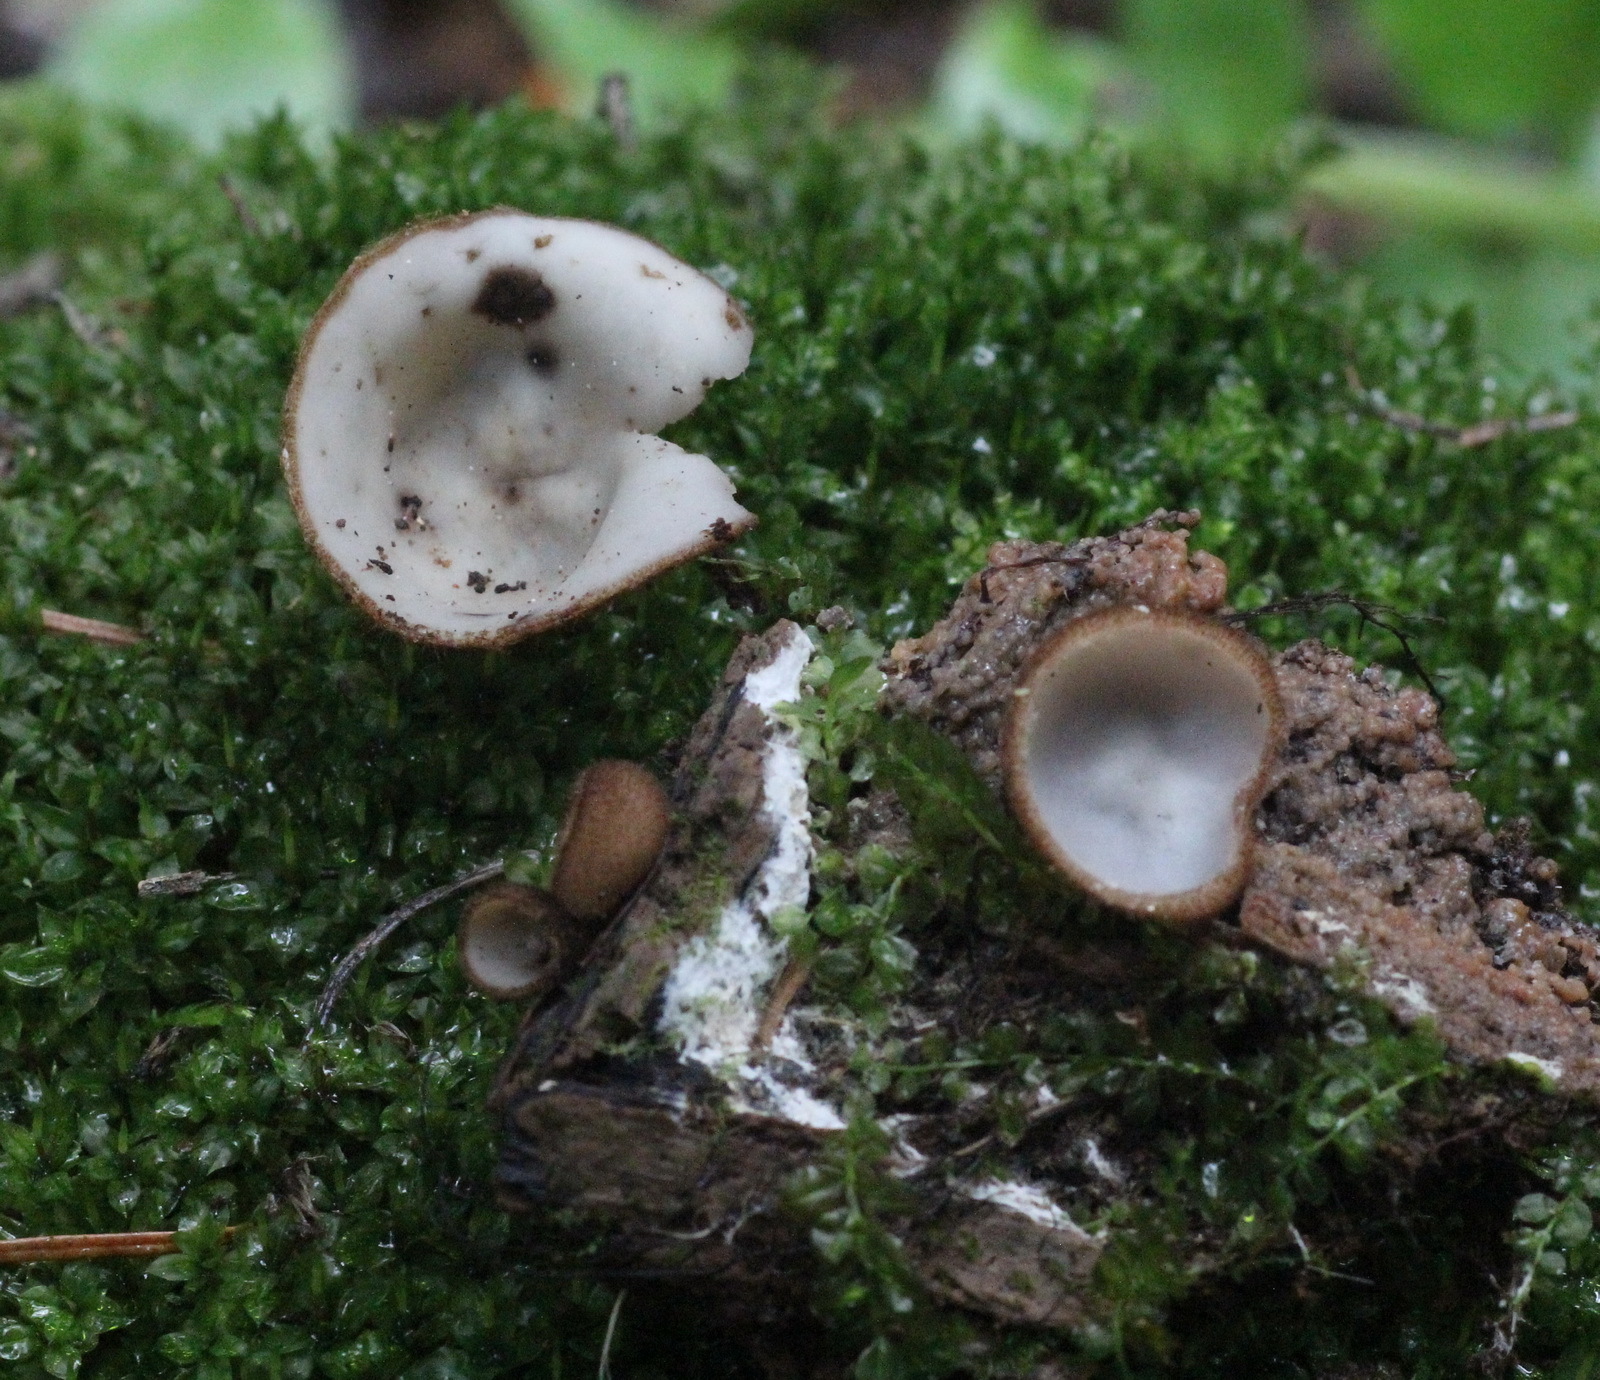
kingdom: Fungi
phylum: Ascomycota
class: Pezizomycetes
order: Pezizales
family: Pyronemataceae
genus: Humaria
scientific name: Humaria hemisphaerica
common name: Glazed cup
